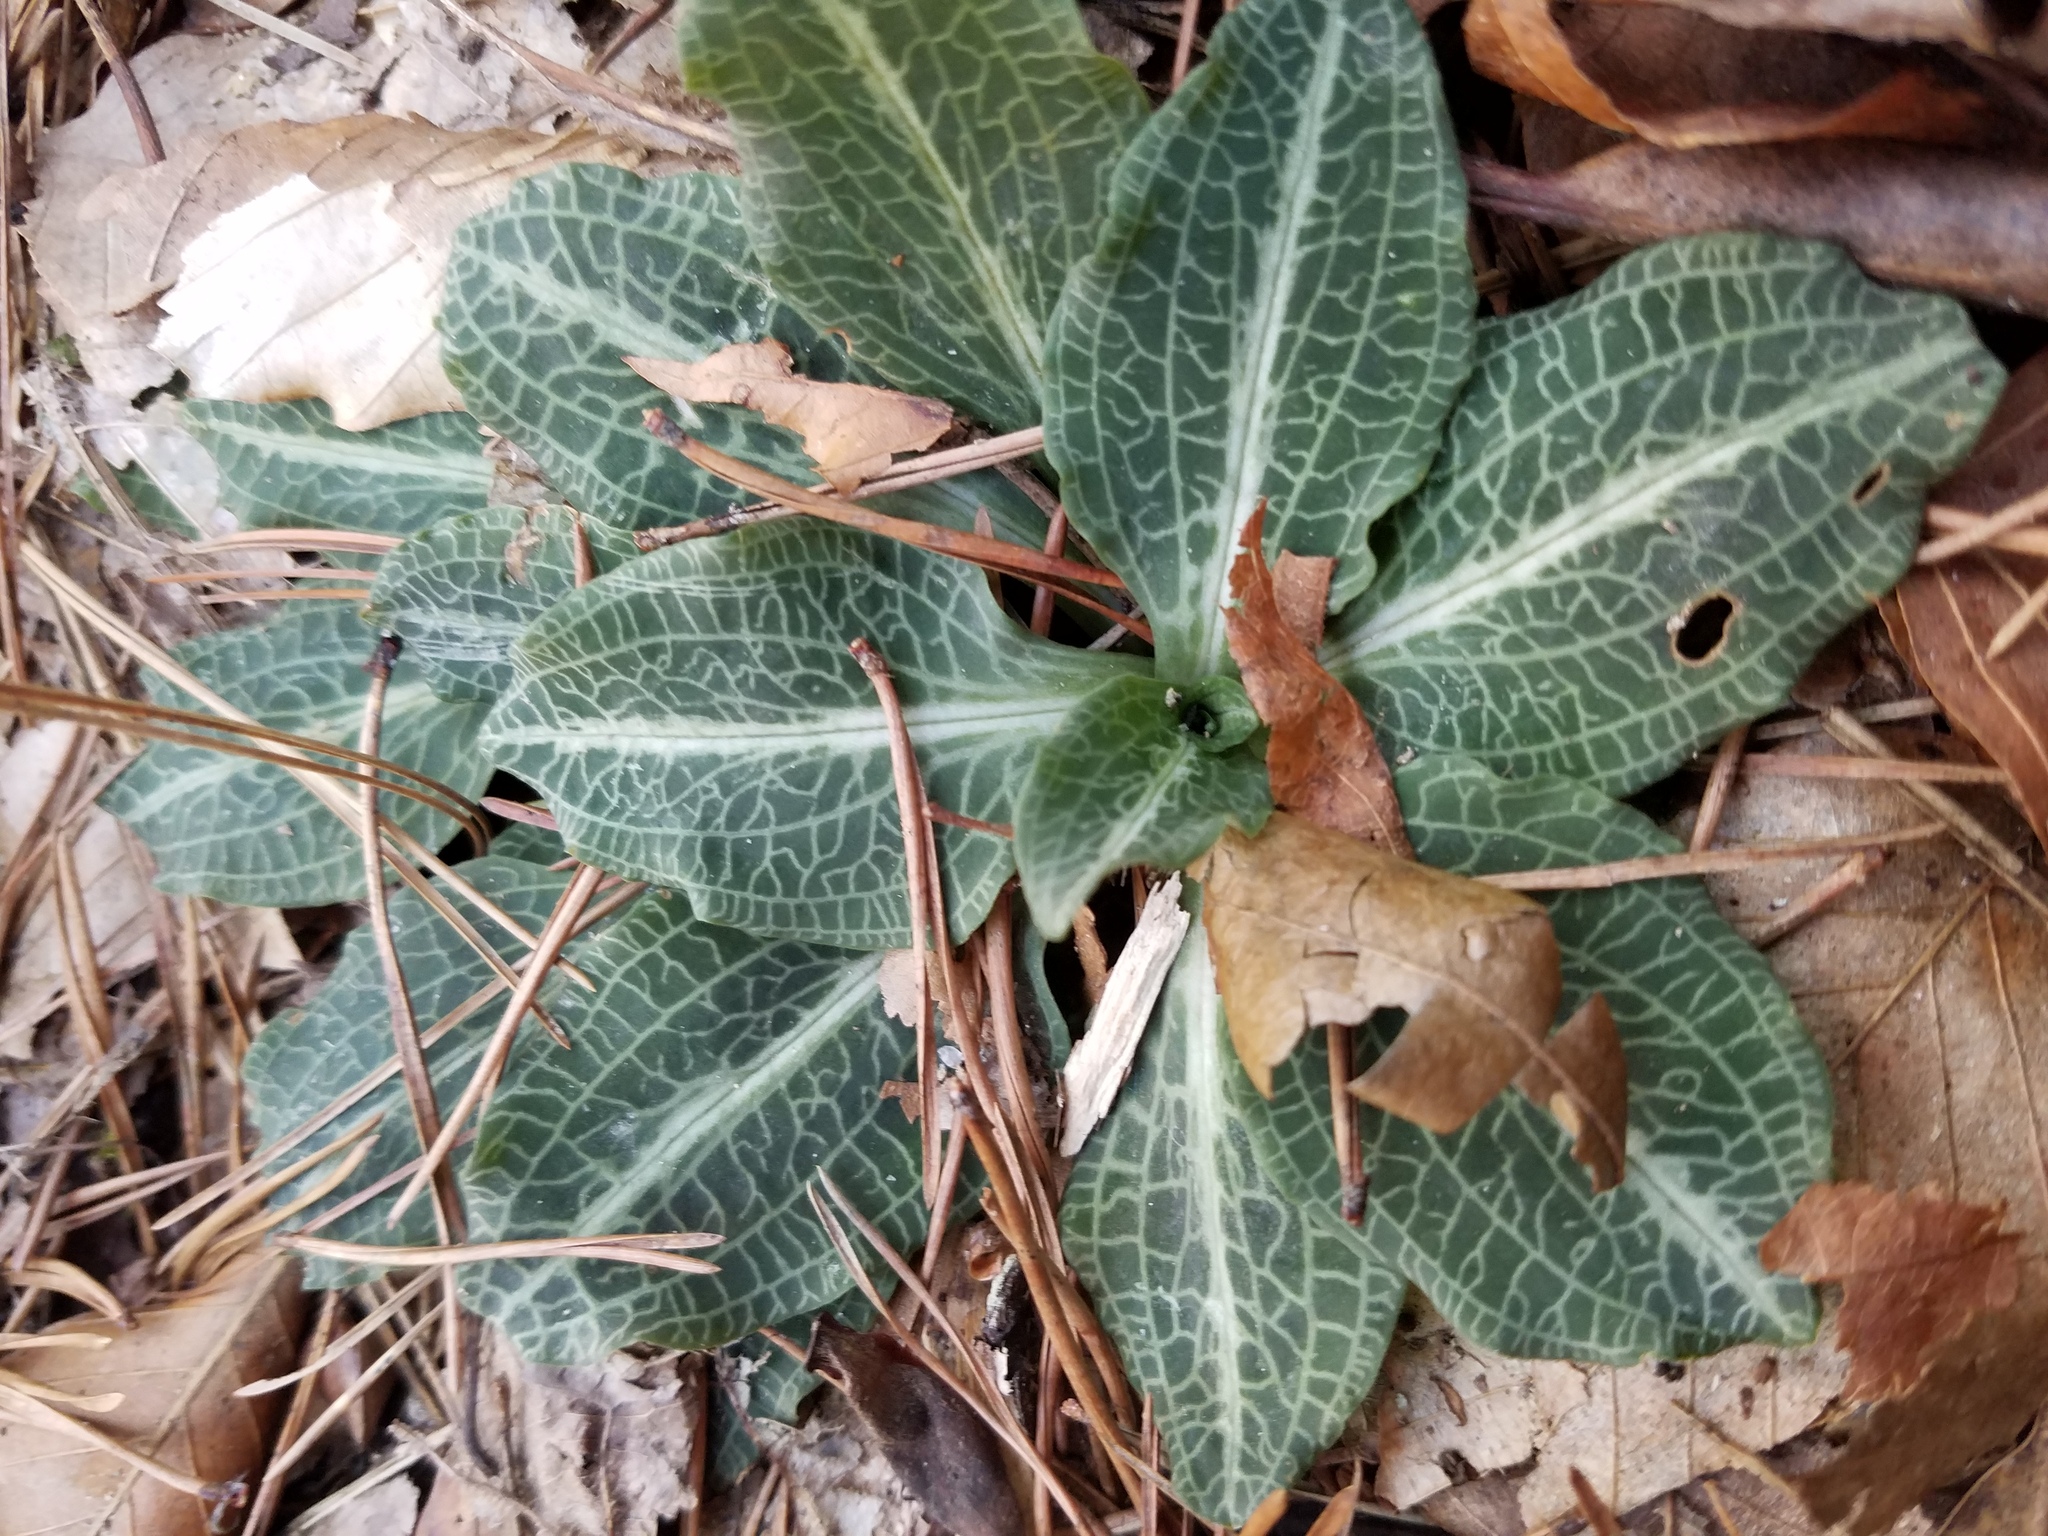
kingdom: Plantae
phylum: Tracheophyta
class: Liliopsida
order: Asparagales
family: Orchidaceae
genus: Goodyera
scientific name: Goodyera pubescens
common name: Downy rattlesnake-plantain
